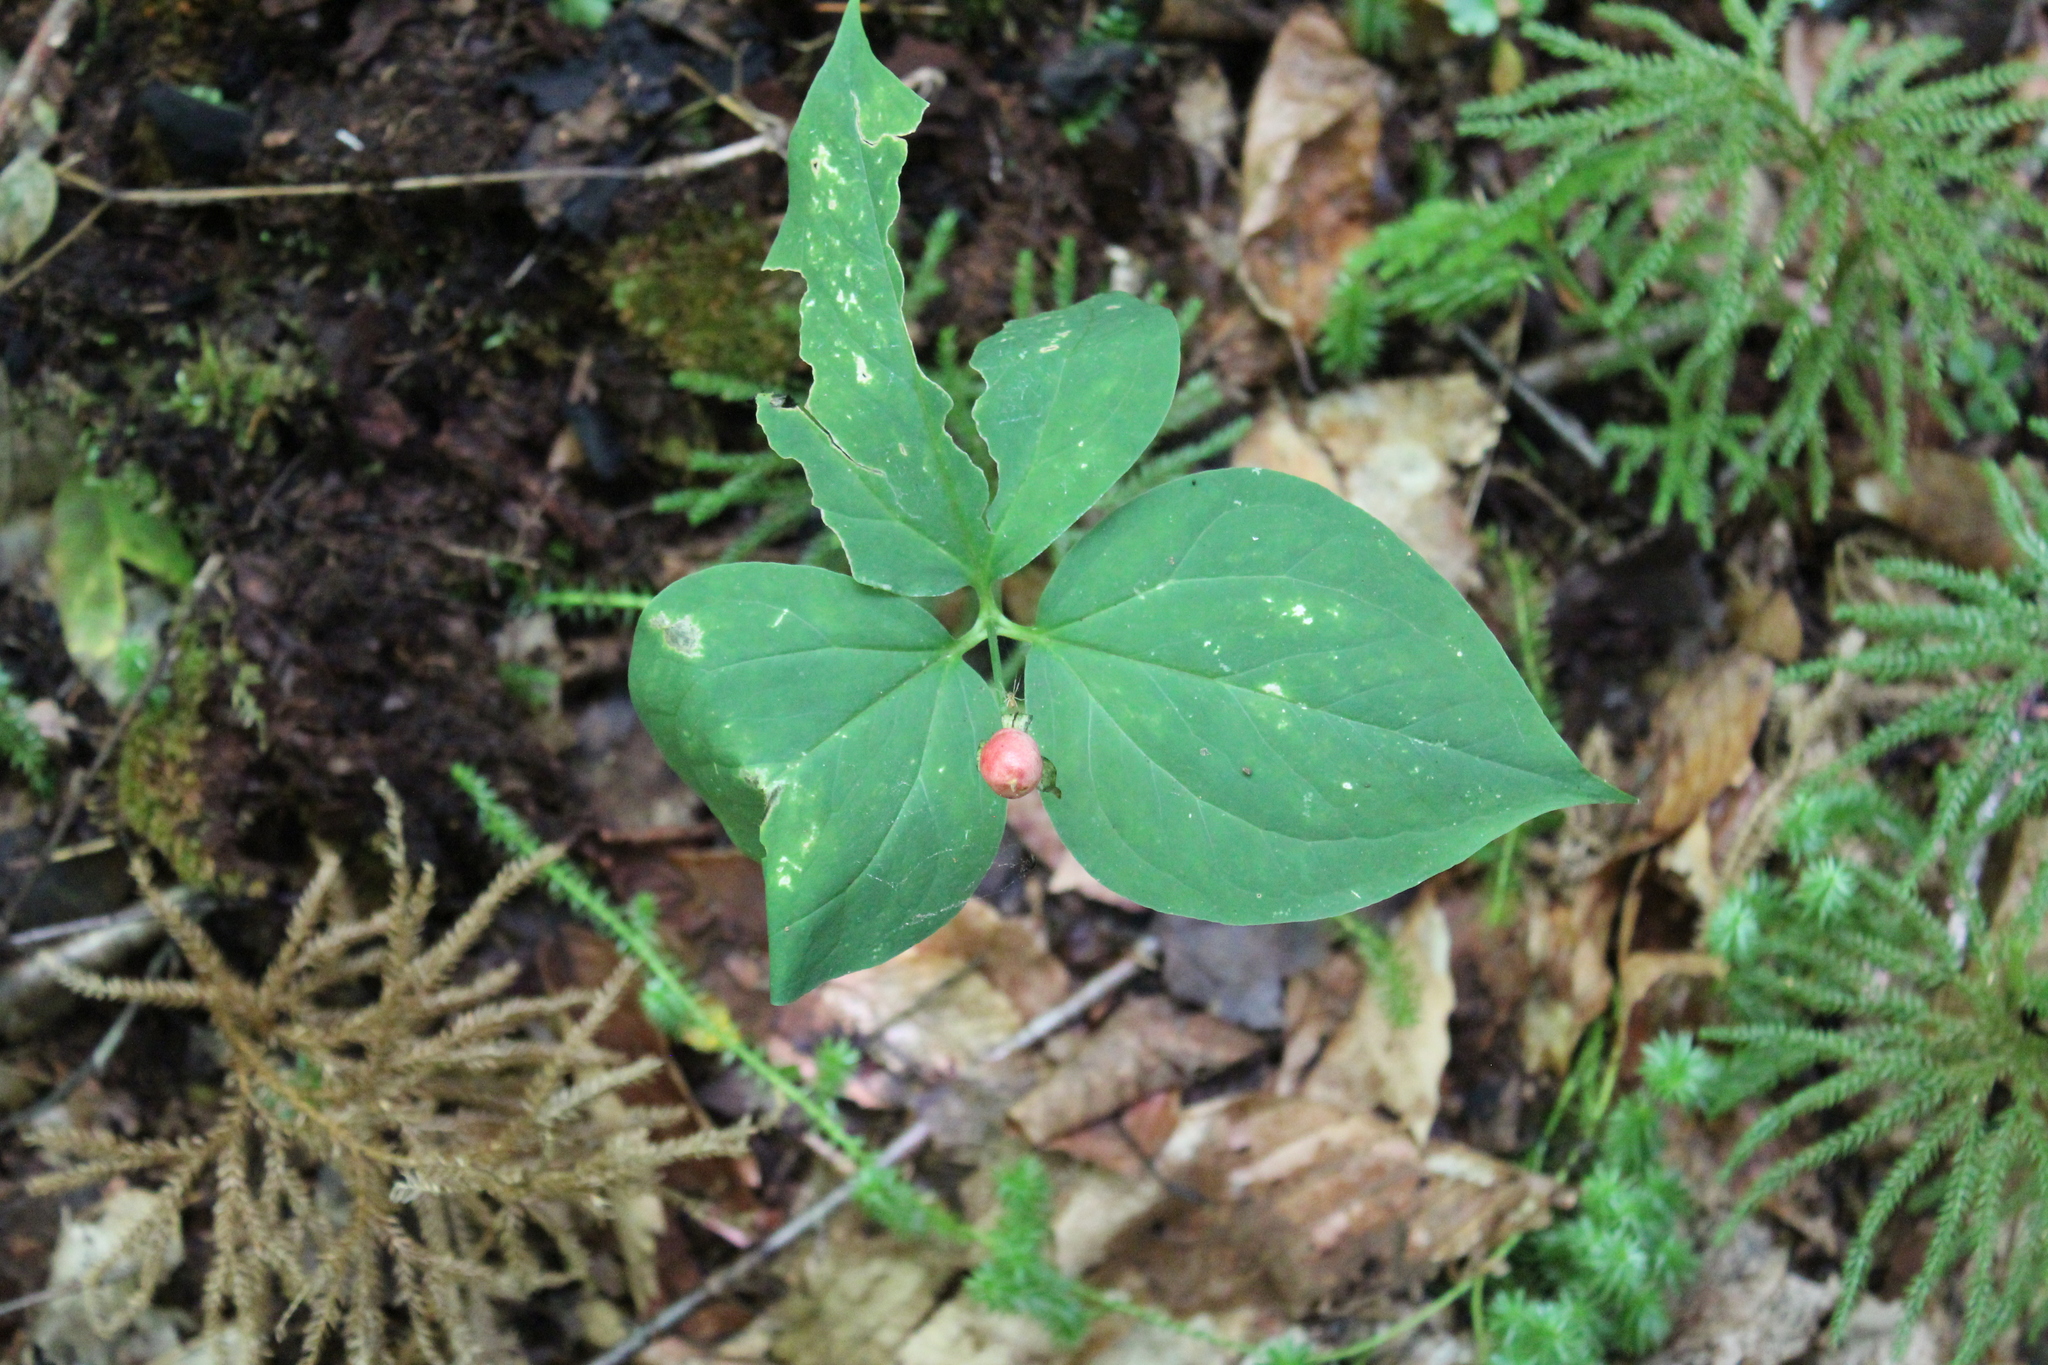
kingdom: Plantae
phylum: Tracheophyta
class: Liliopsida
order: Liliales
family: Melanthiaceae
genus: Trillium
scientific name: Trillium undulatum
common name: Paint trillium
